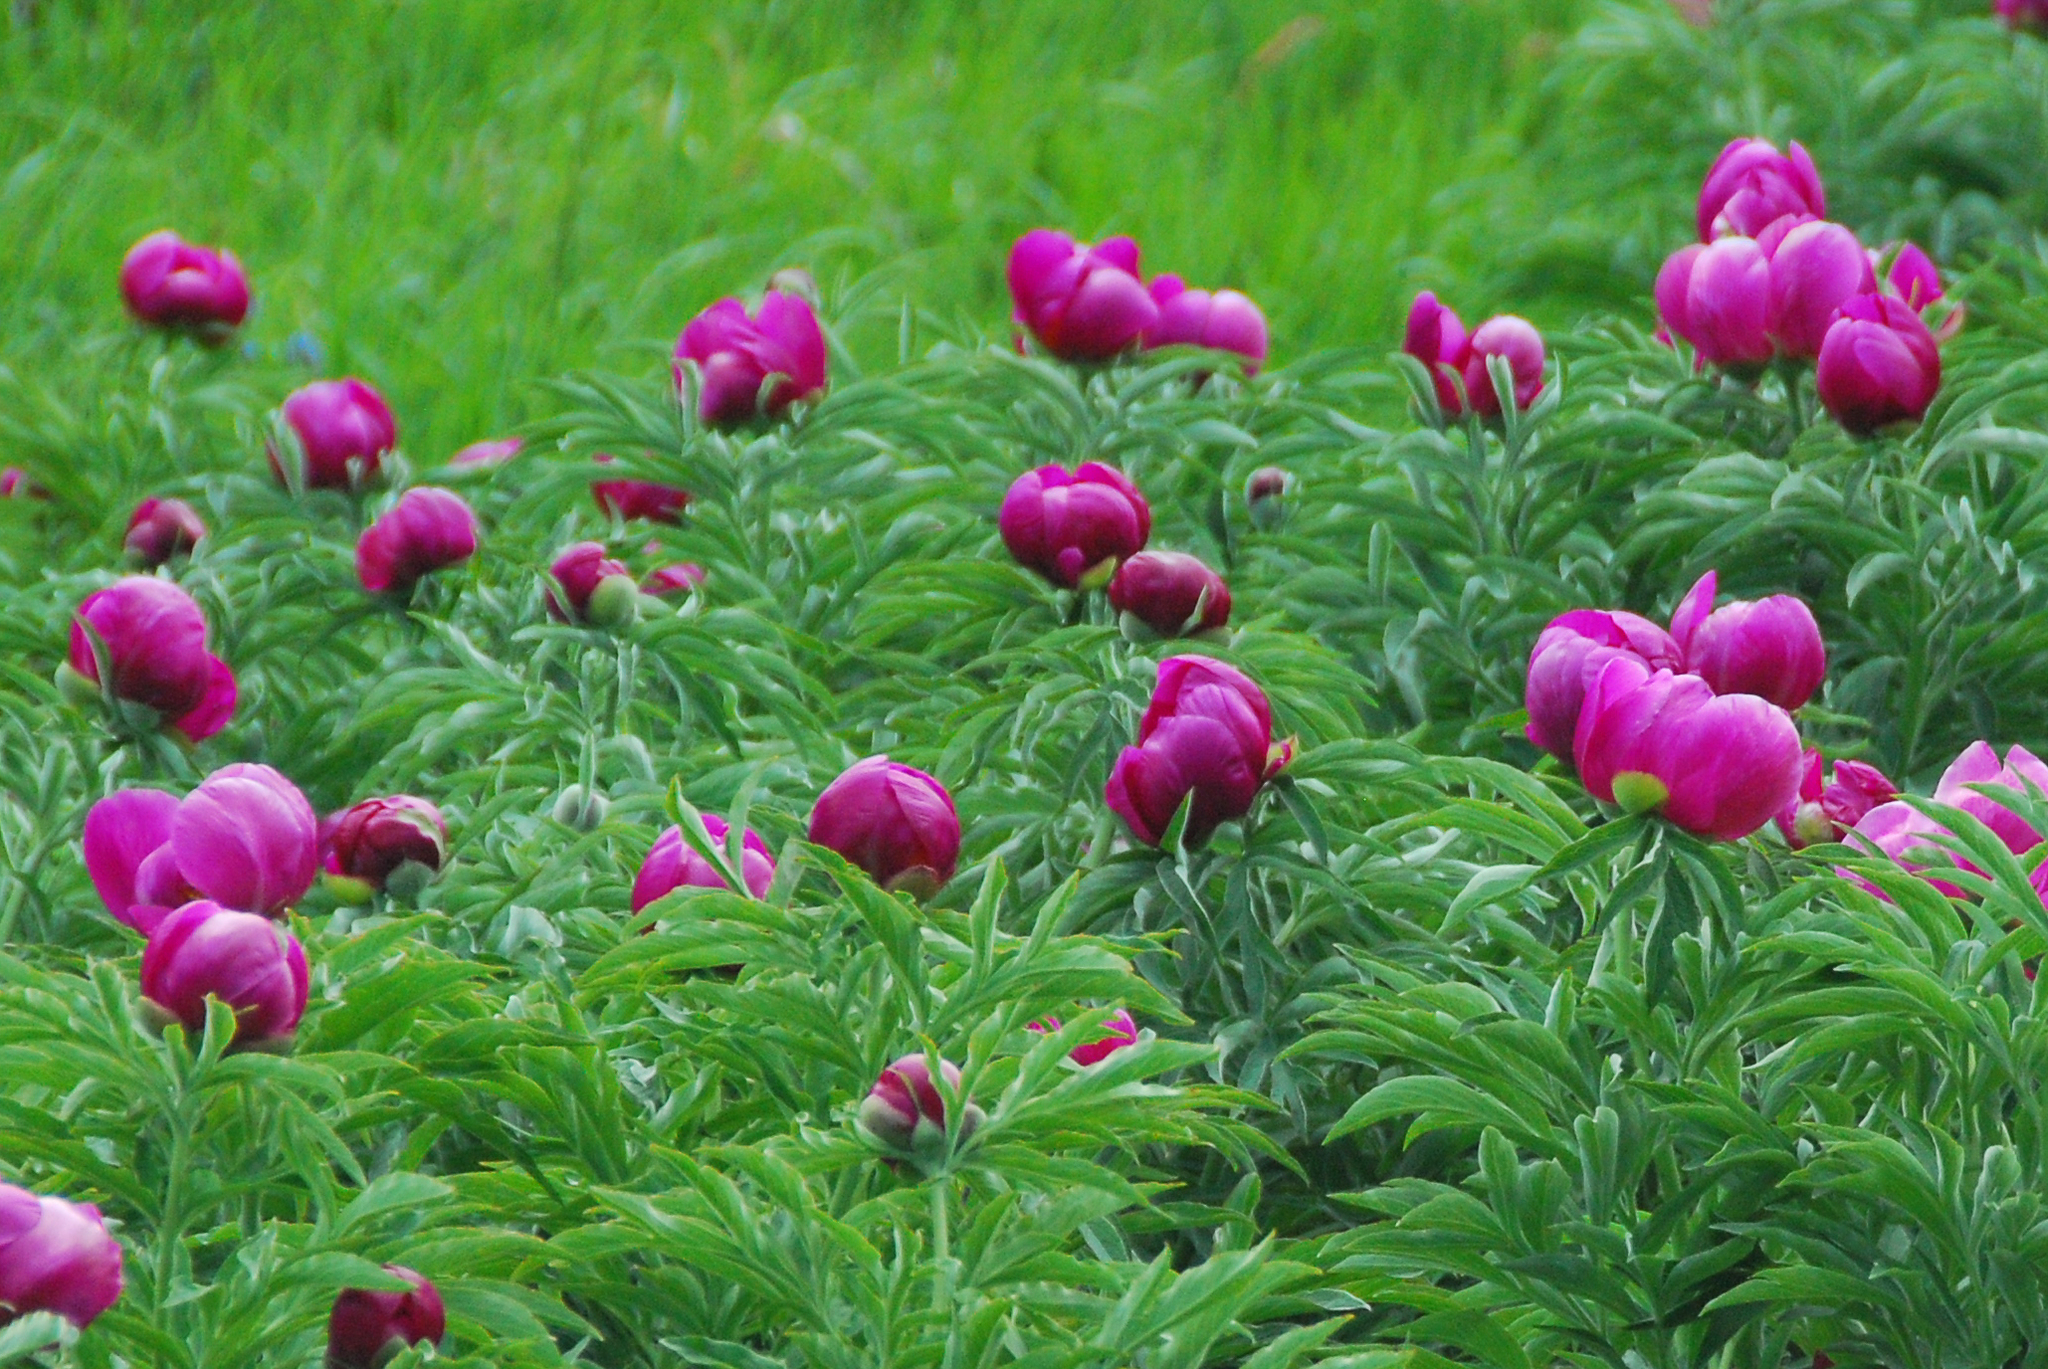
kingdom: Plantae
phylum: Tracheophyta
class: Magnoliopsida
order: Saxifragales
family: Paeoniaceae
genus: Paeonia
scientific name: Paeonia officinalis
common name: Common peony
